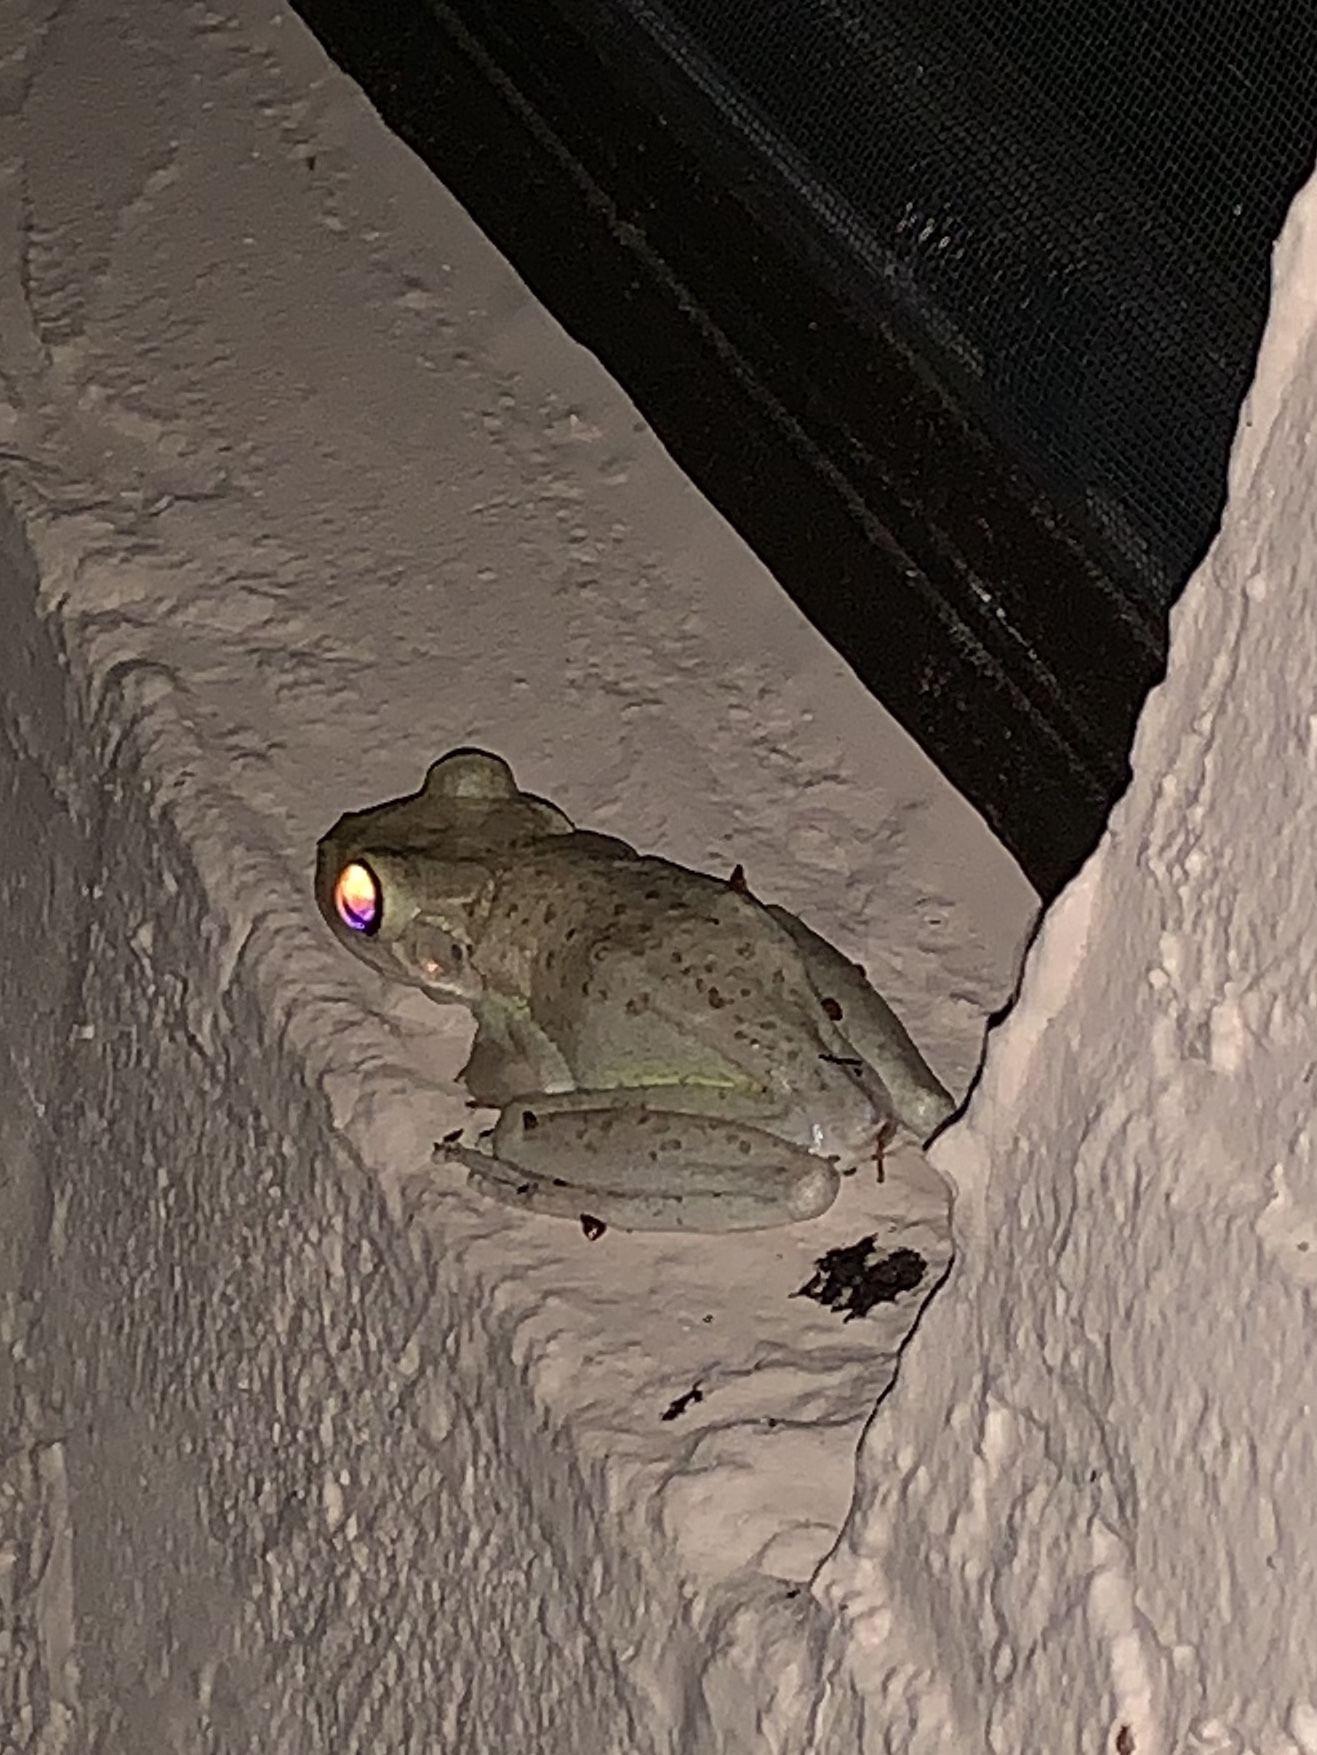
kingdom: Animalia
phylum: Chordata
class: Amphibia
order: Anura
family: Hylidae
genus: Osteopilus
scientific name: Osteopilus septentrionalis
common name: Cuban treefrog
